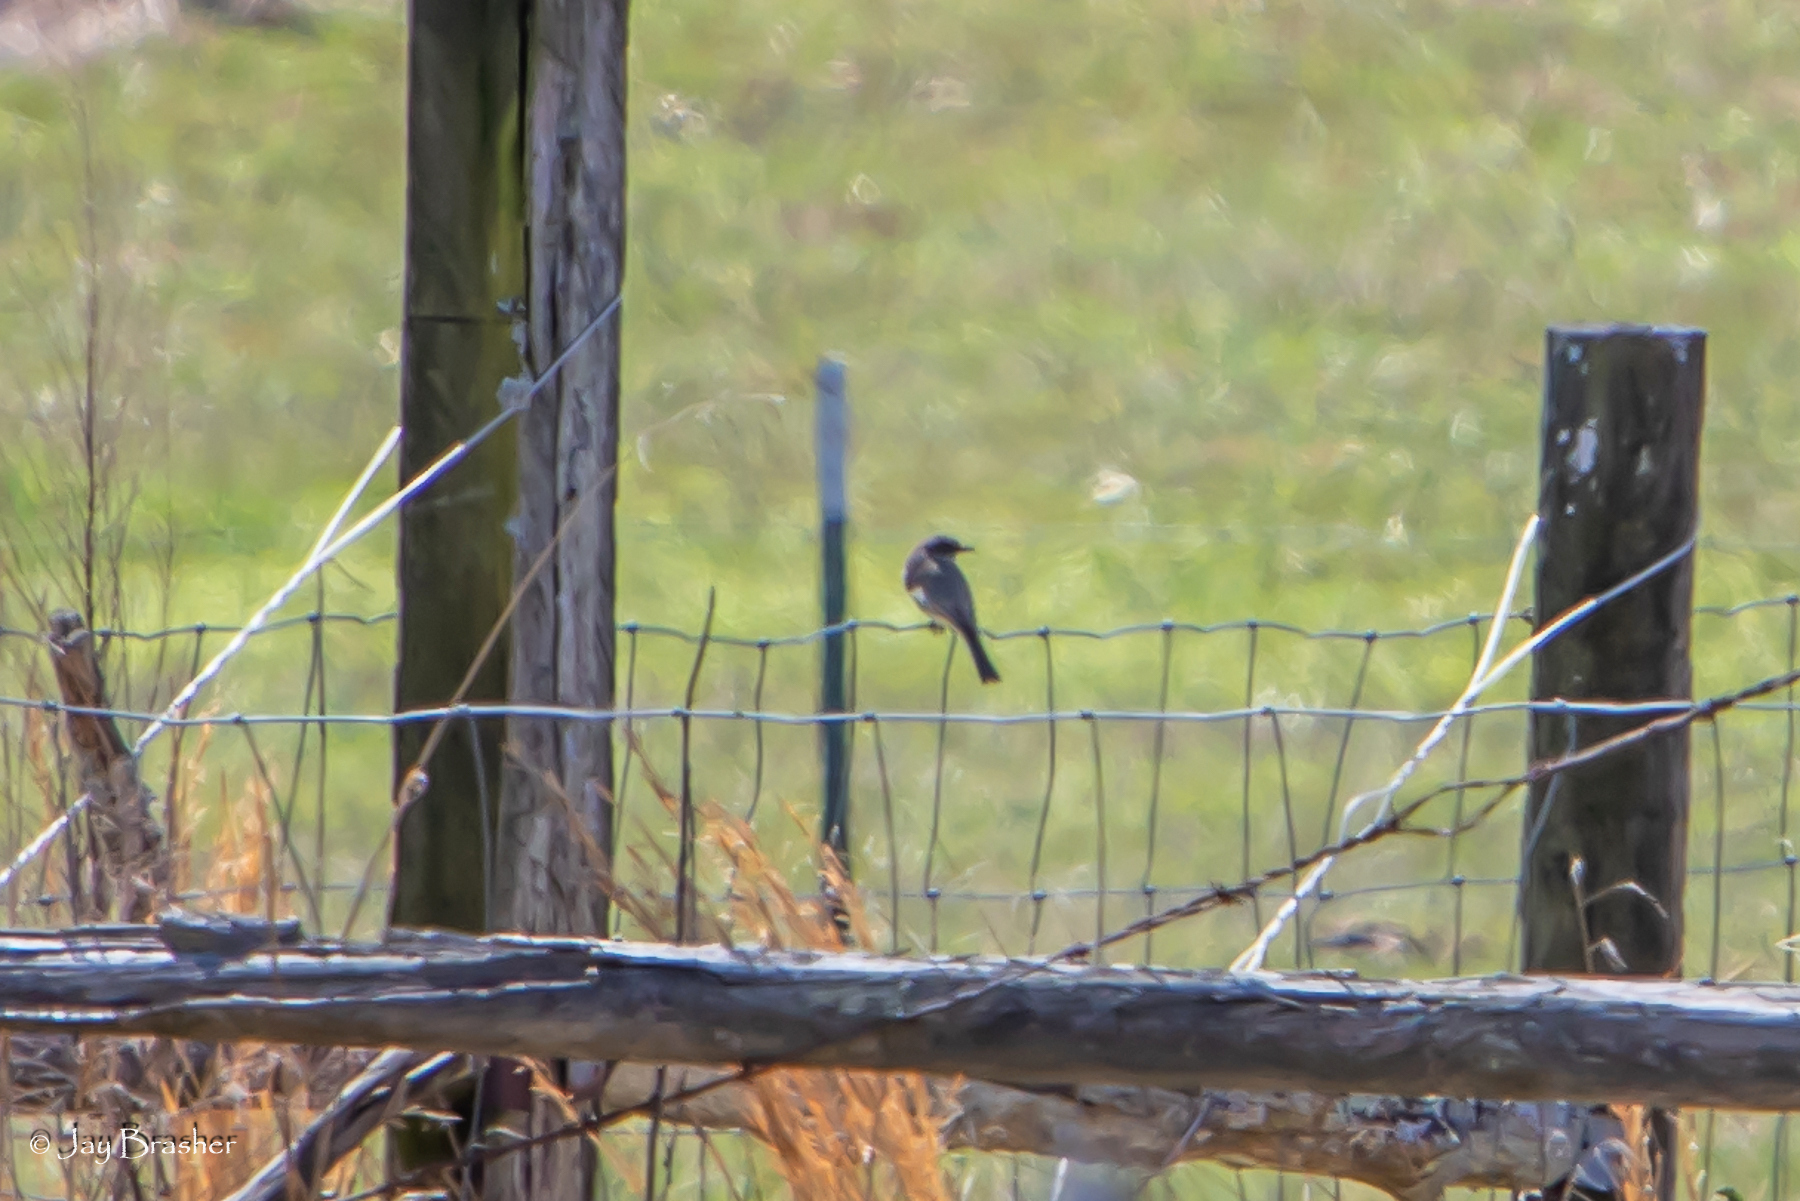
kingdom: Animalia
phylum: Chordata
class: Aves
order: Passeriformes
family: Tyrannidae
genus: Sayornis
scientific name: Sayornis phoebe
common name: Eastern phoebe
